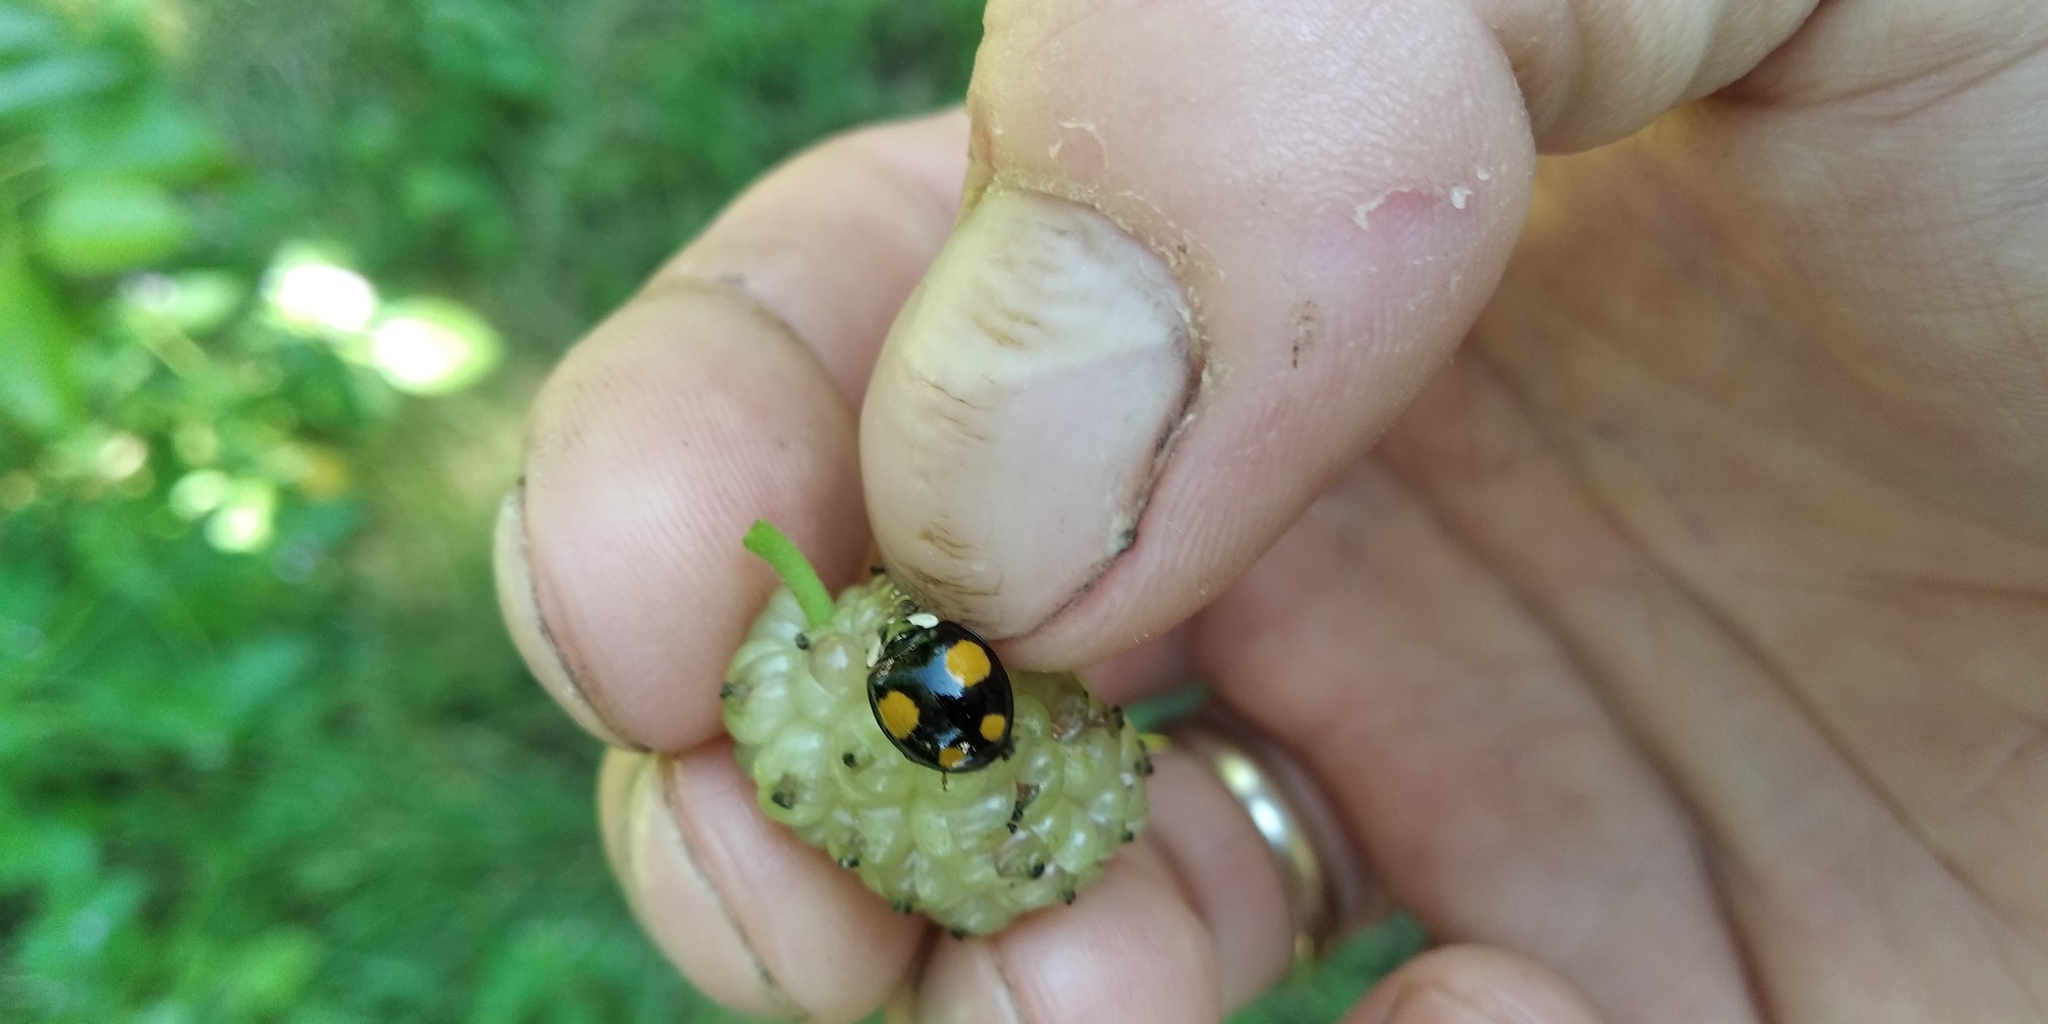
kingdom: Animalia
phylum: Arthropoda
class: Insecta
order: Coleoptera
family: Coccinellidae
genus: Harmonia
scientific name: Harmonia axyridis
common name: Harlequin ladybird
